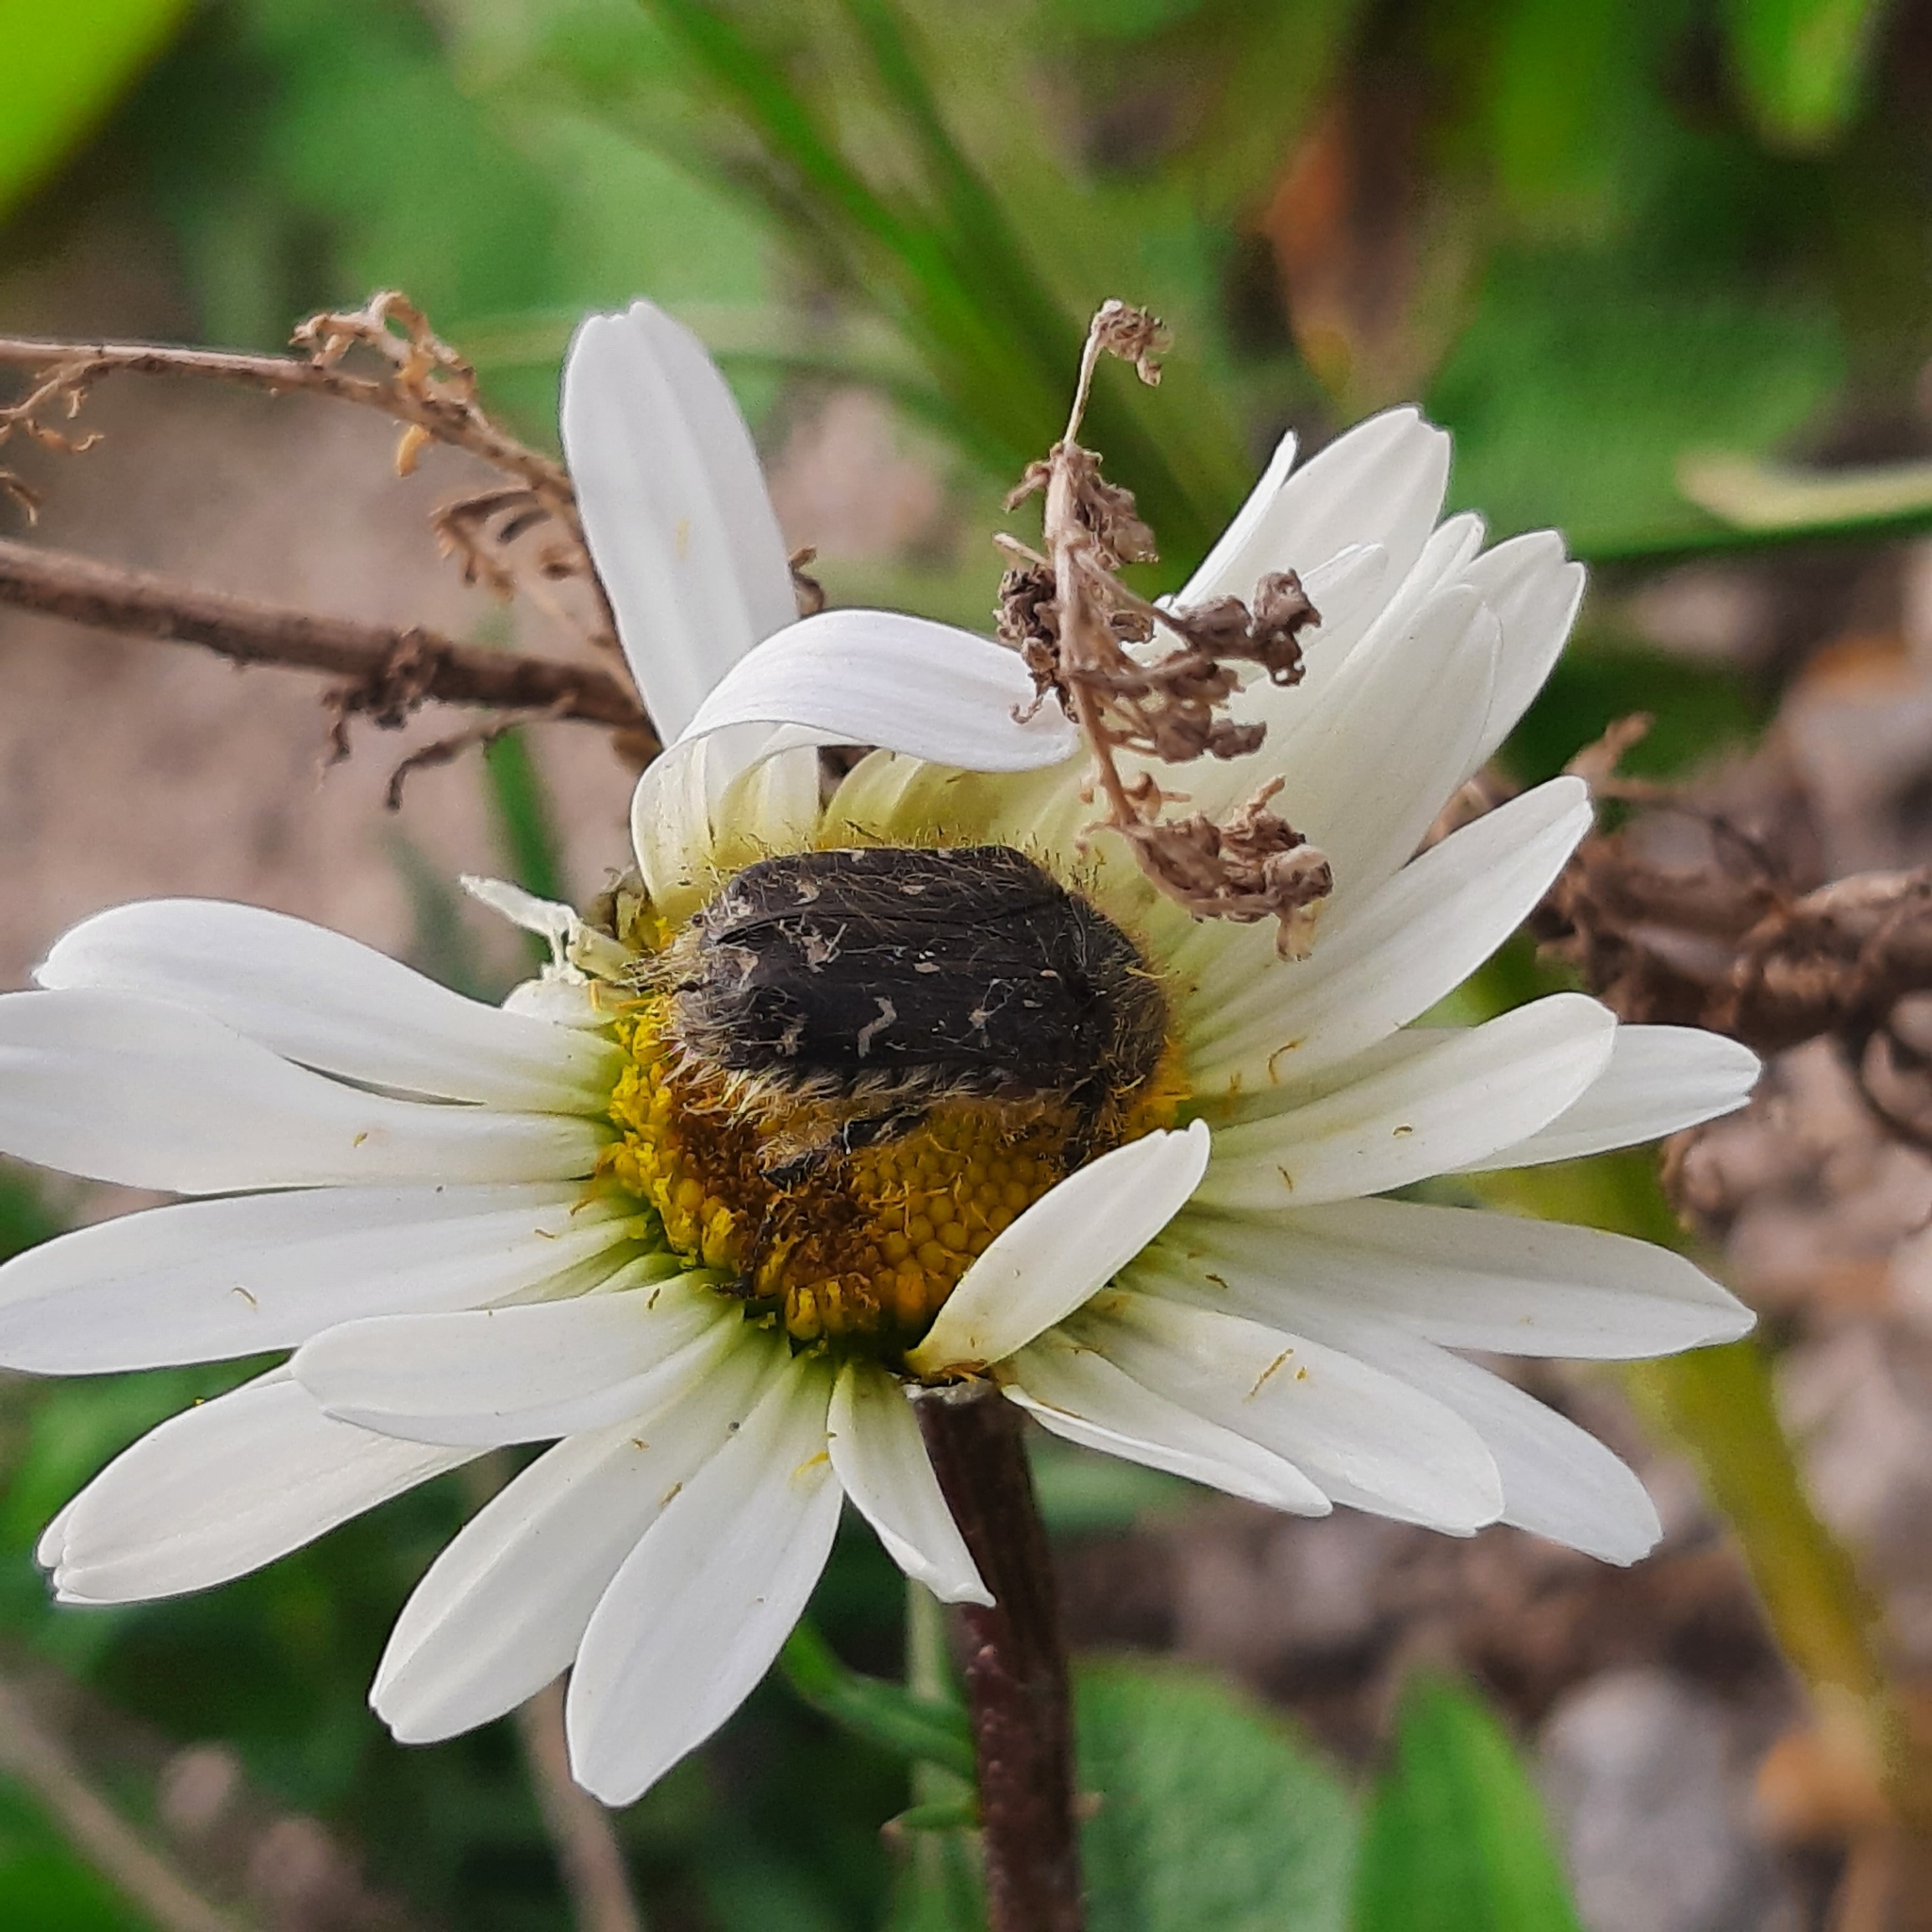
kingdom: Animalia
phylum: Arthropoda
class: Insecta
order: Coleoptera
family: Scarabaeidae
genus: Tropinota
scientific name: Tropinota hirta
